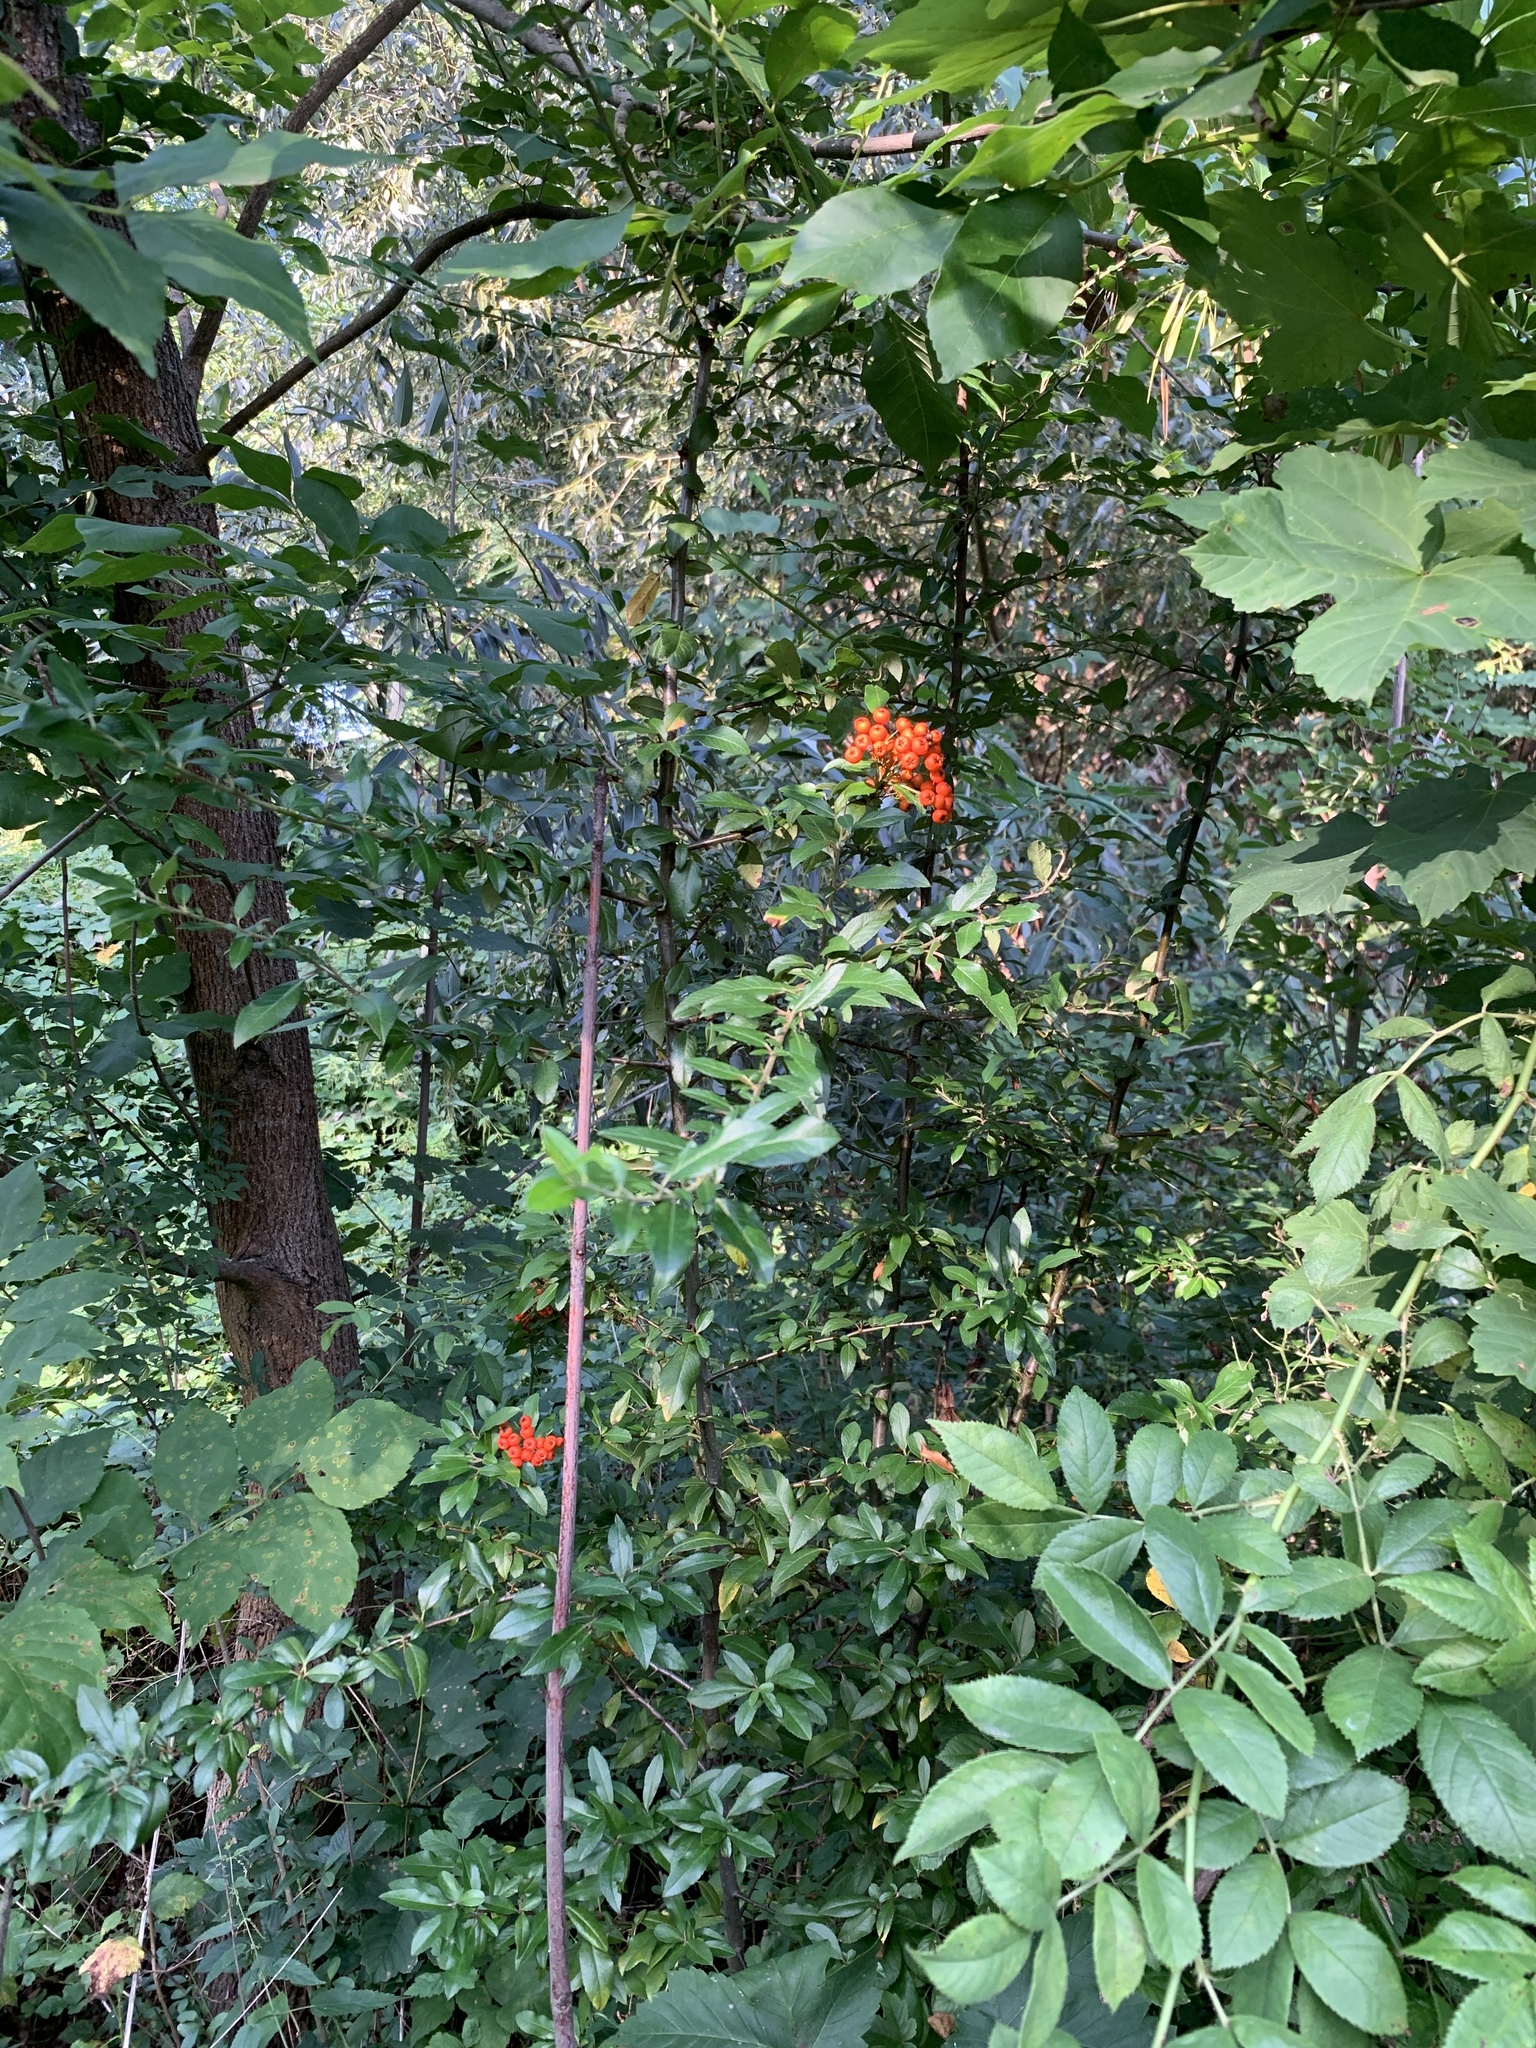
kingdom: Plantae
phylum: Tracheophyta
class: Magnoliopsida
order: Rosales
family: Rosaceae
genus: Pyracantha
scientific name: Pyracantha coccinea
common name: Firethorn
